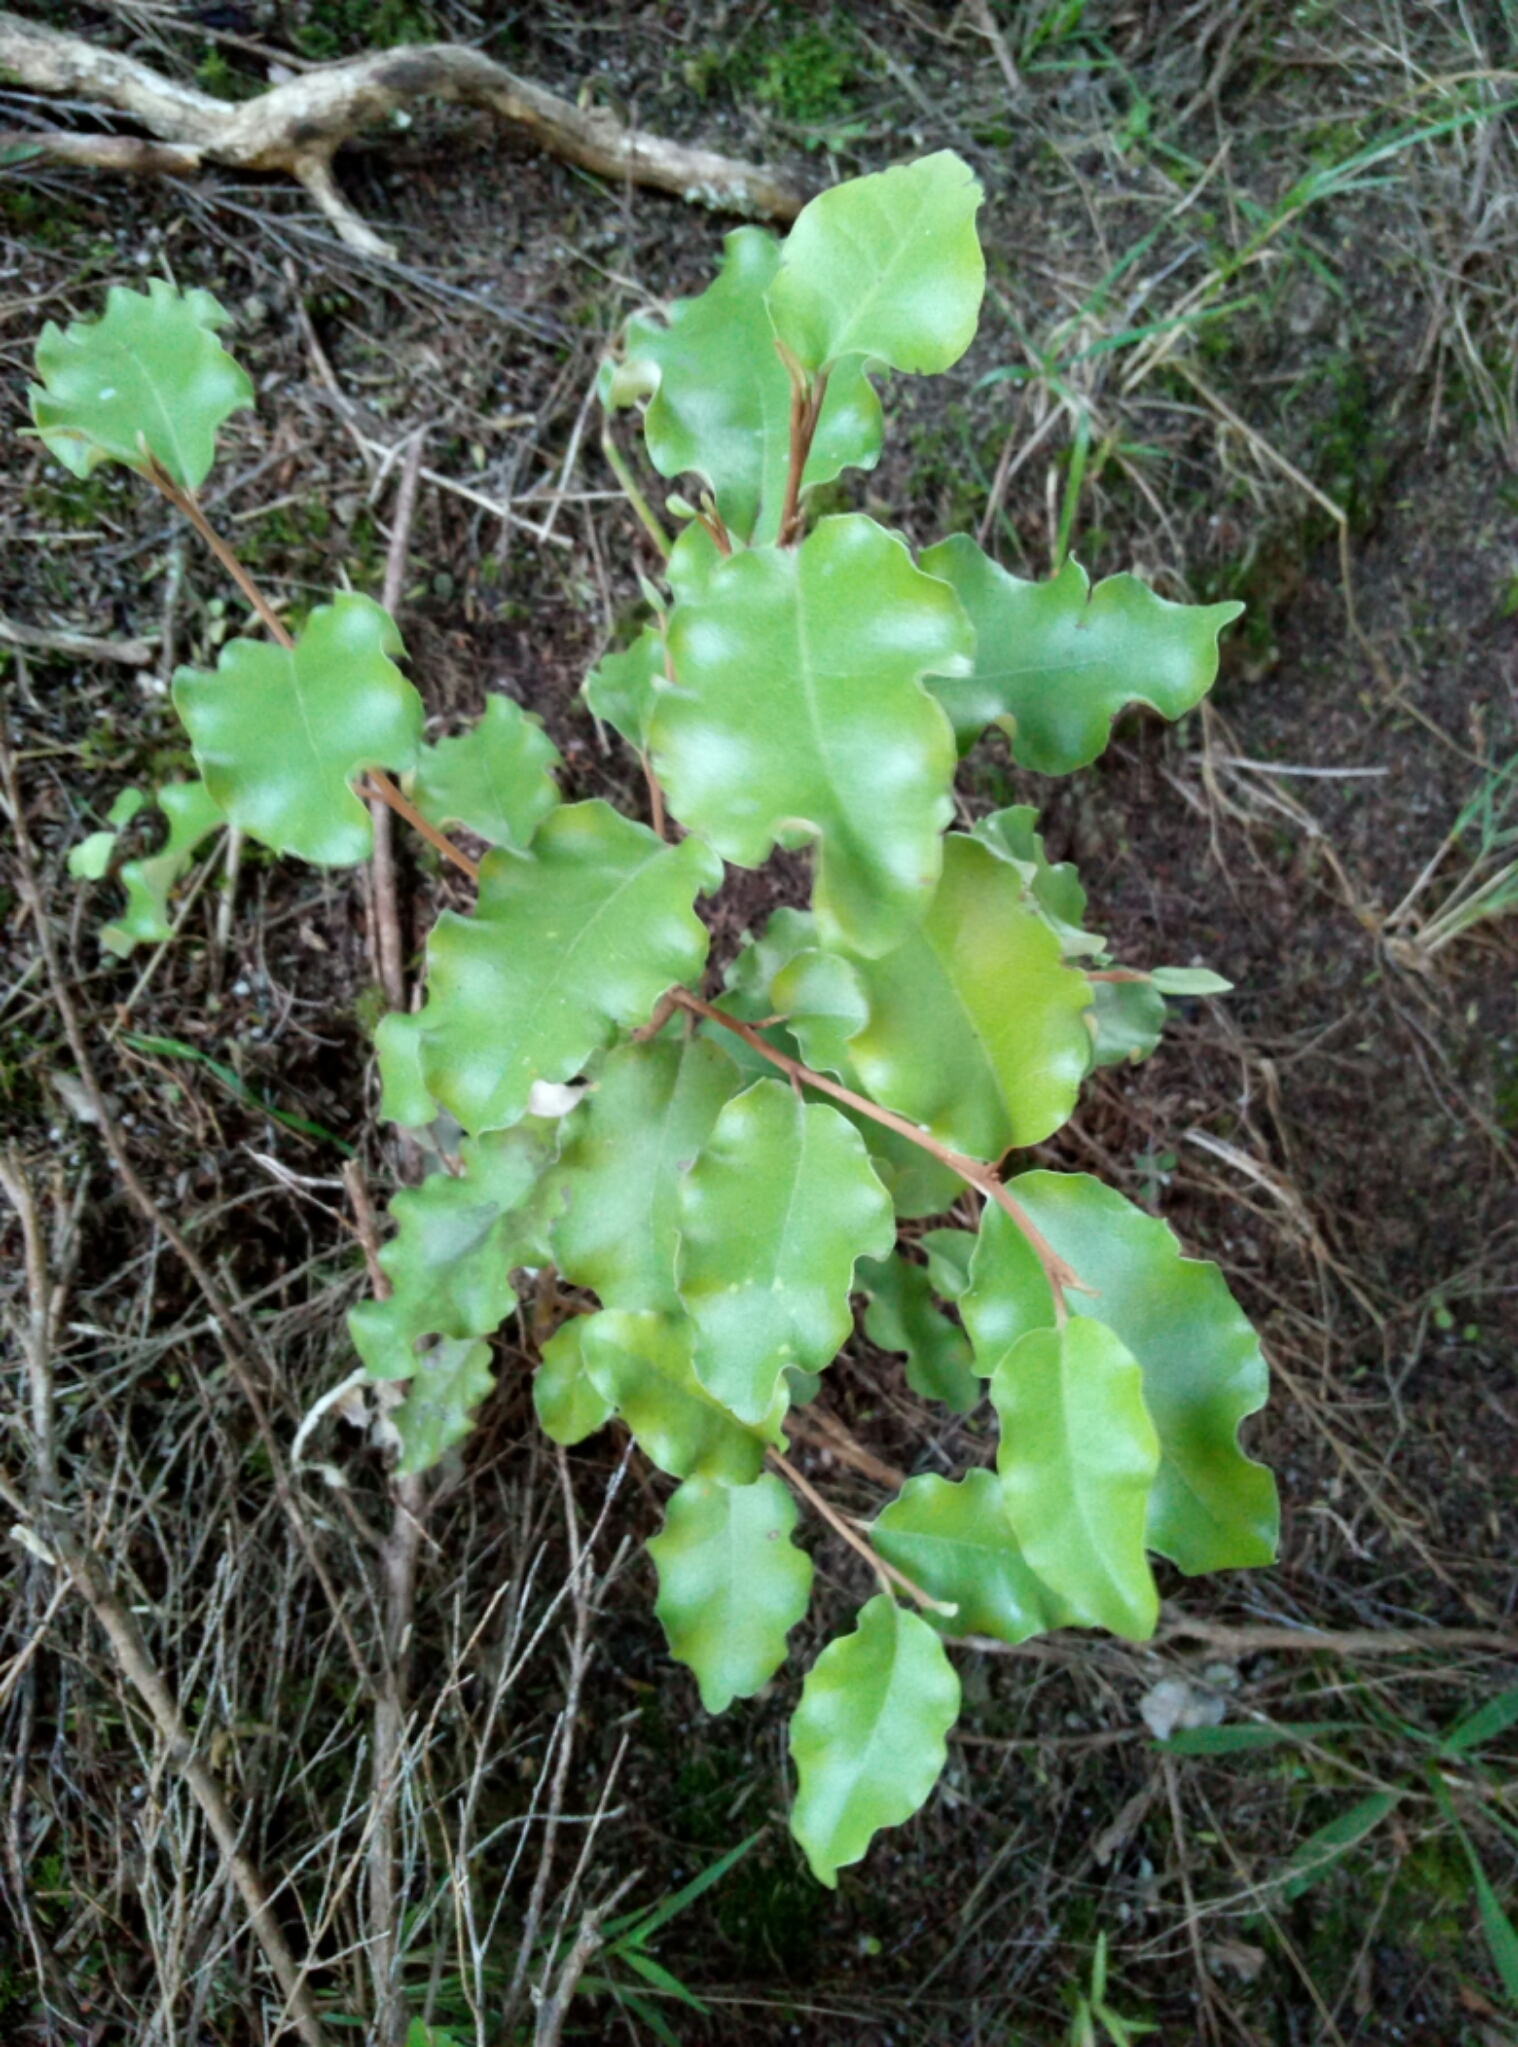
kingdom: Plantae
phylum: Tracheophyta
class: Magnoliopsida
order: Asterales
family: Asteraceae
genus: Olearia
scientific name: Olearia paniculata
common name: Akiraho
